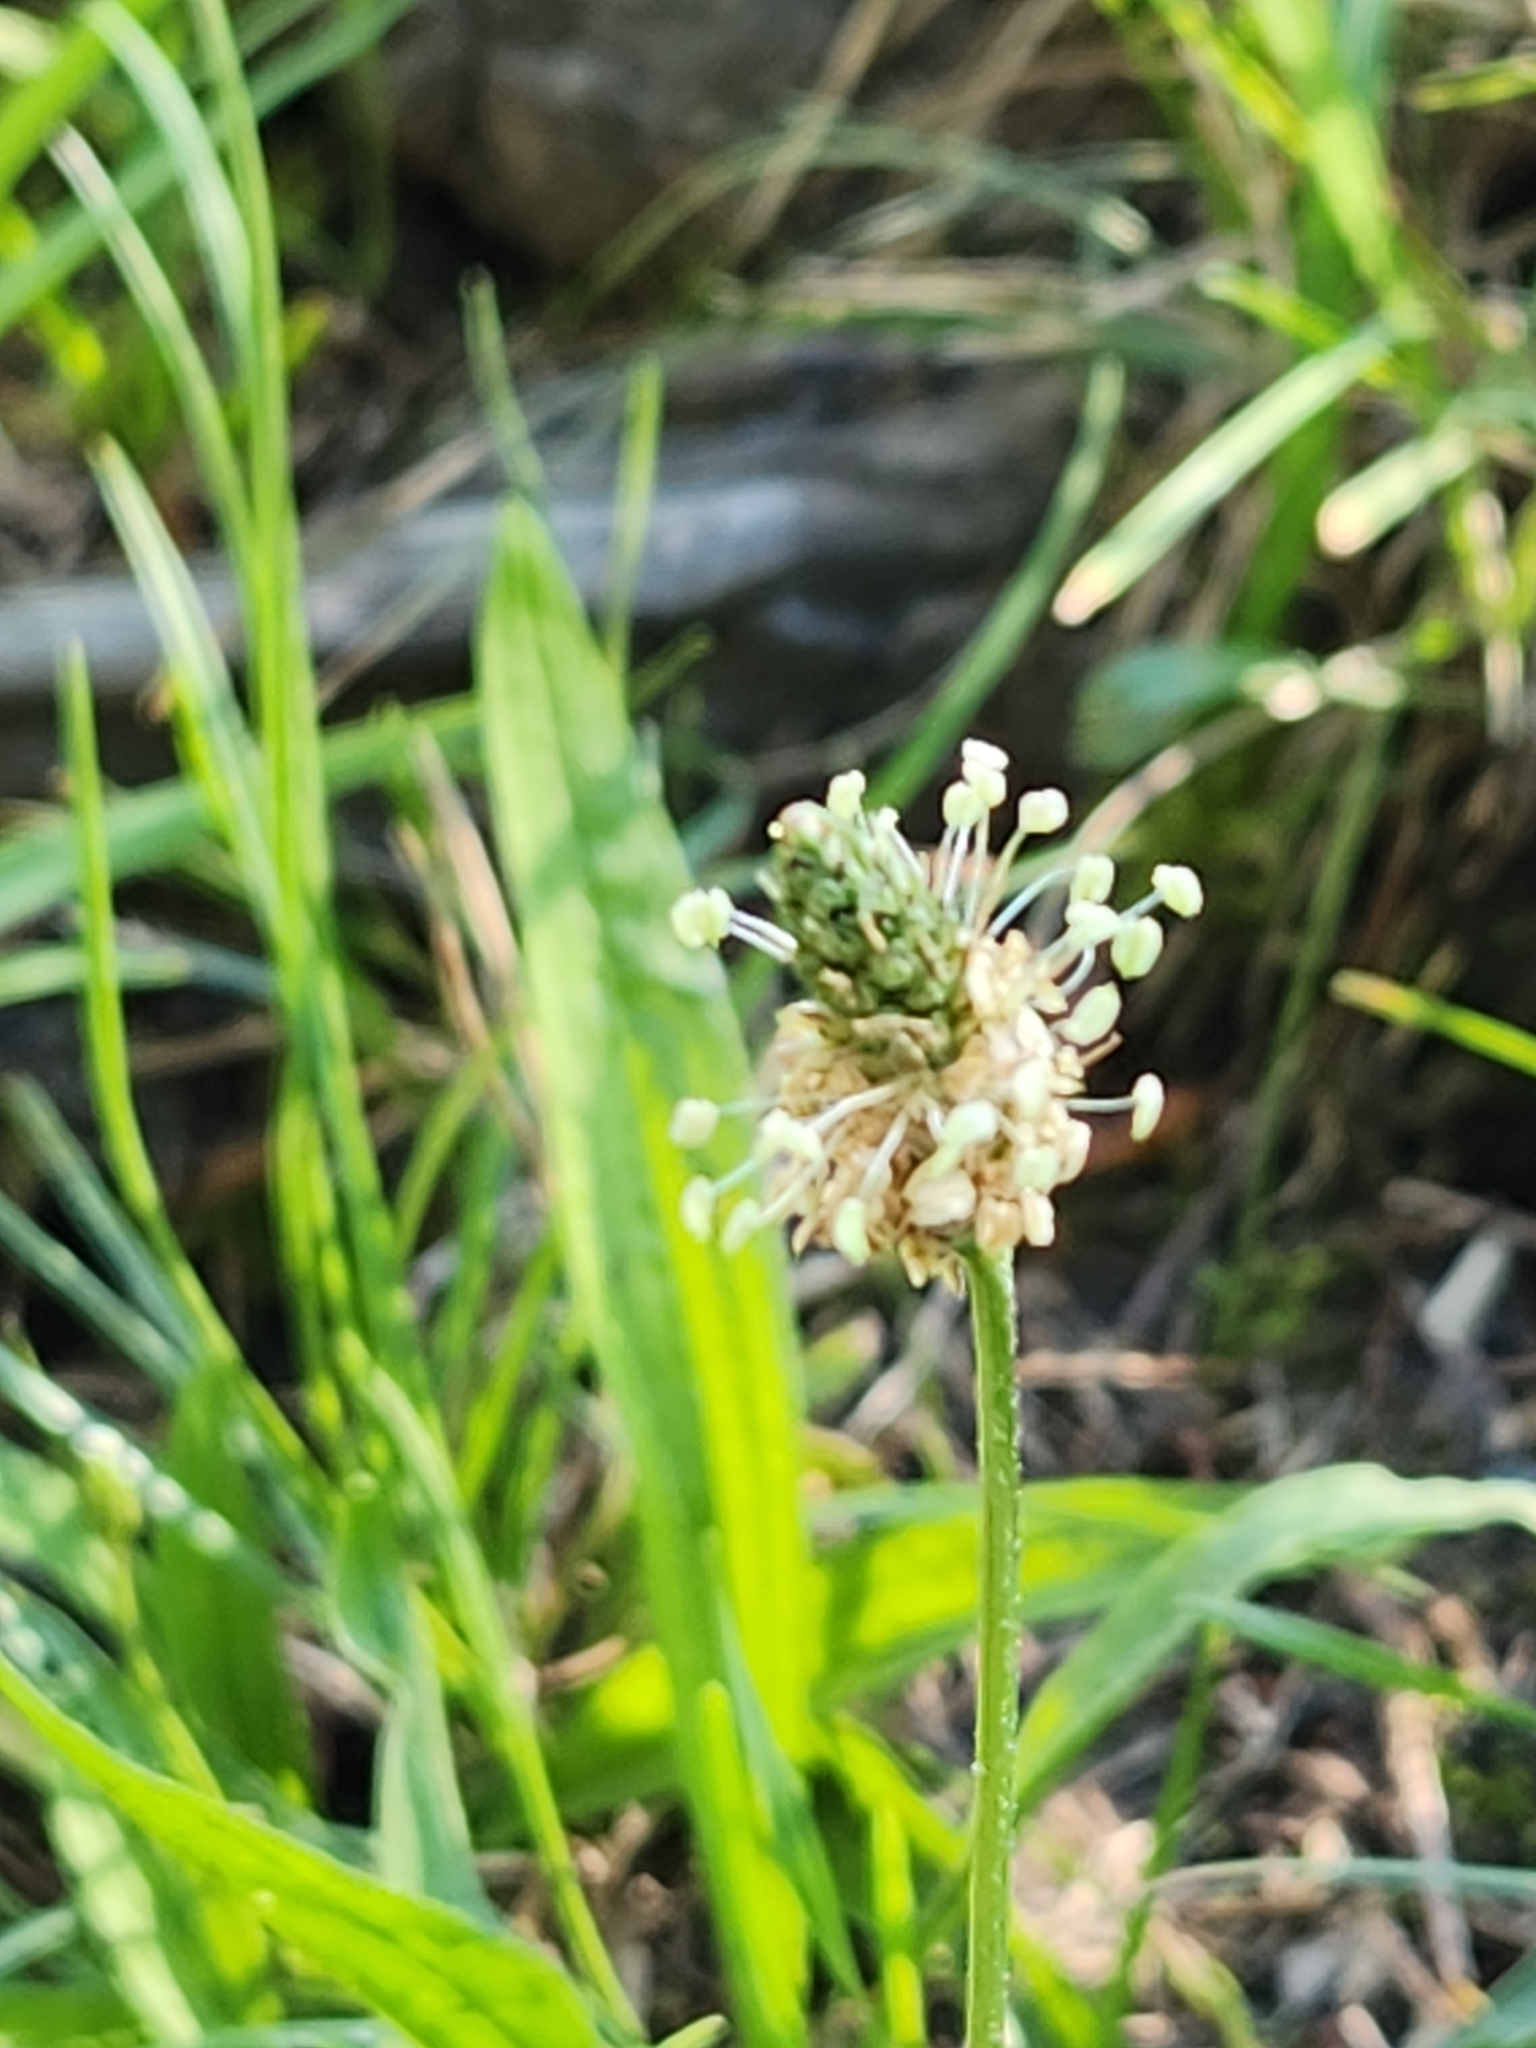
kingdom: Plantae
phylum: Tracheophyta
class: Magnoliopsida
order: Lamiales
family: Plantaginaceae
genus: Plantago
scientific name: Plantago lanceolata
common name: Ribwort plantain
